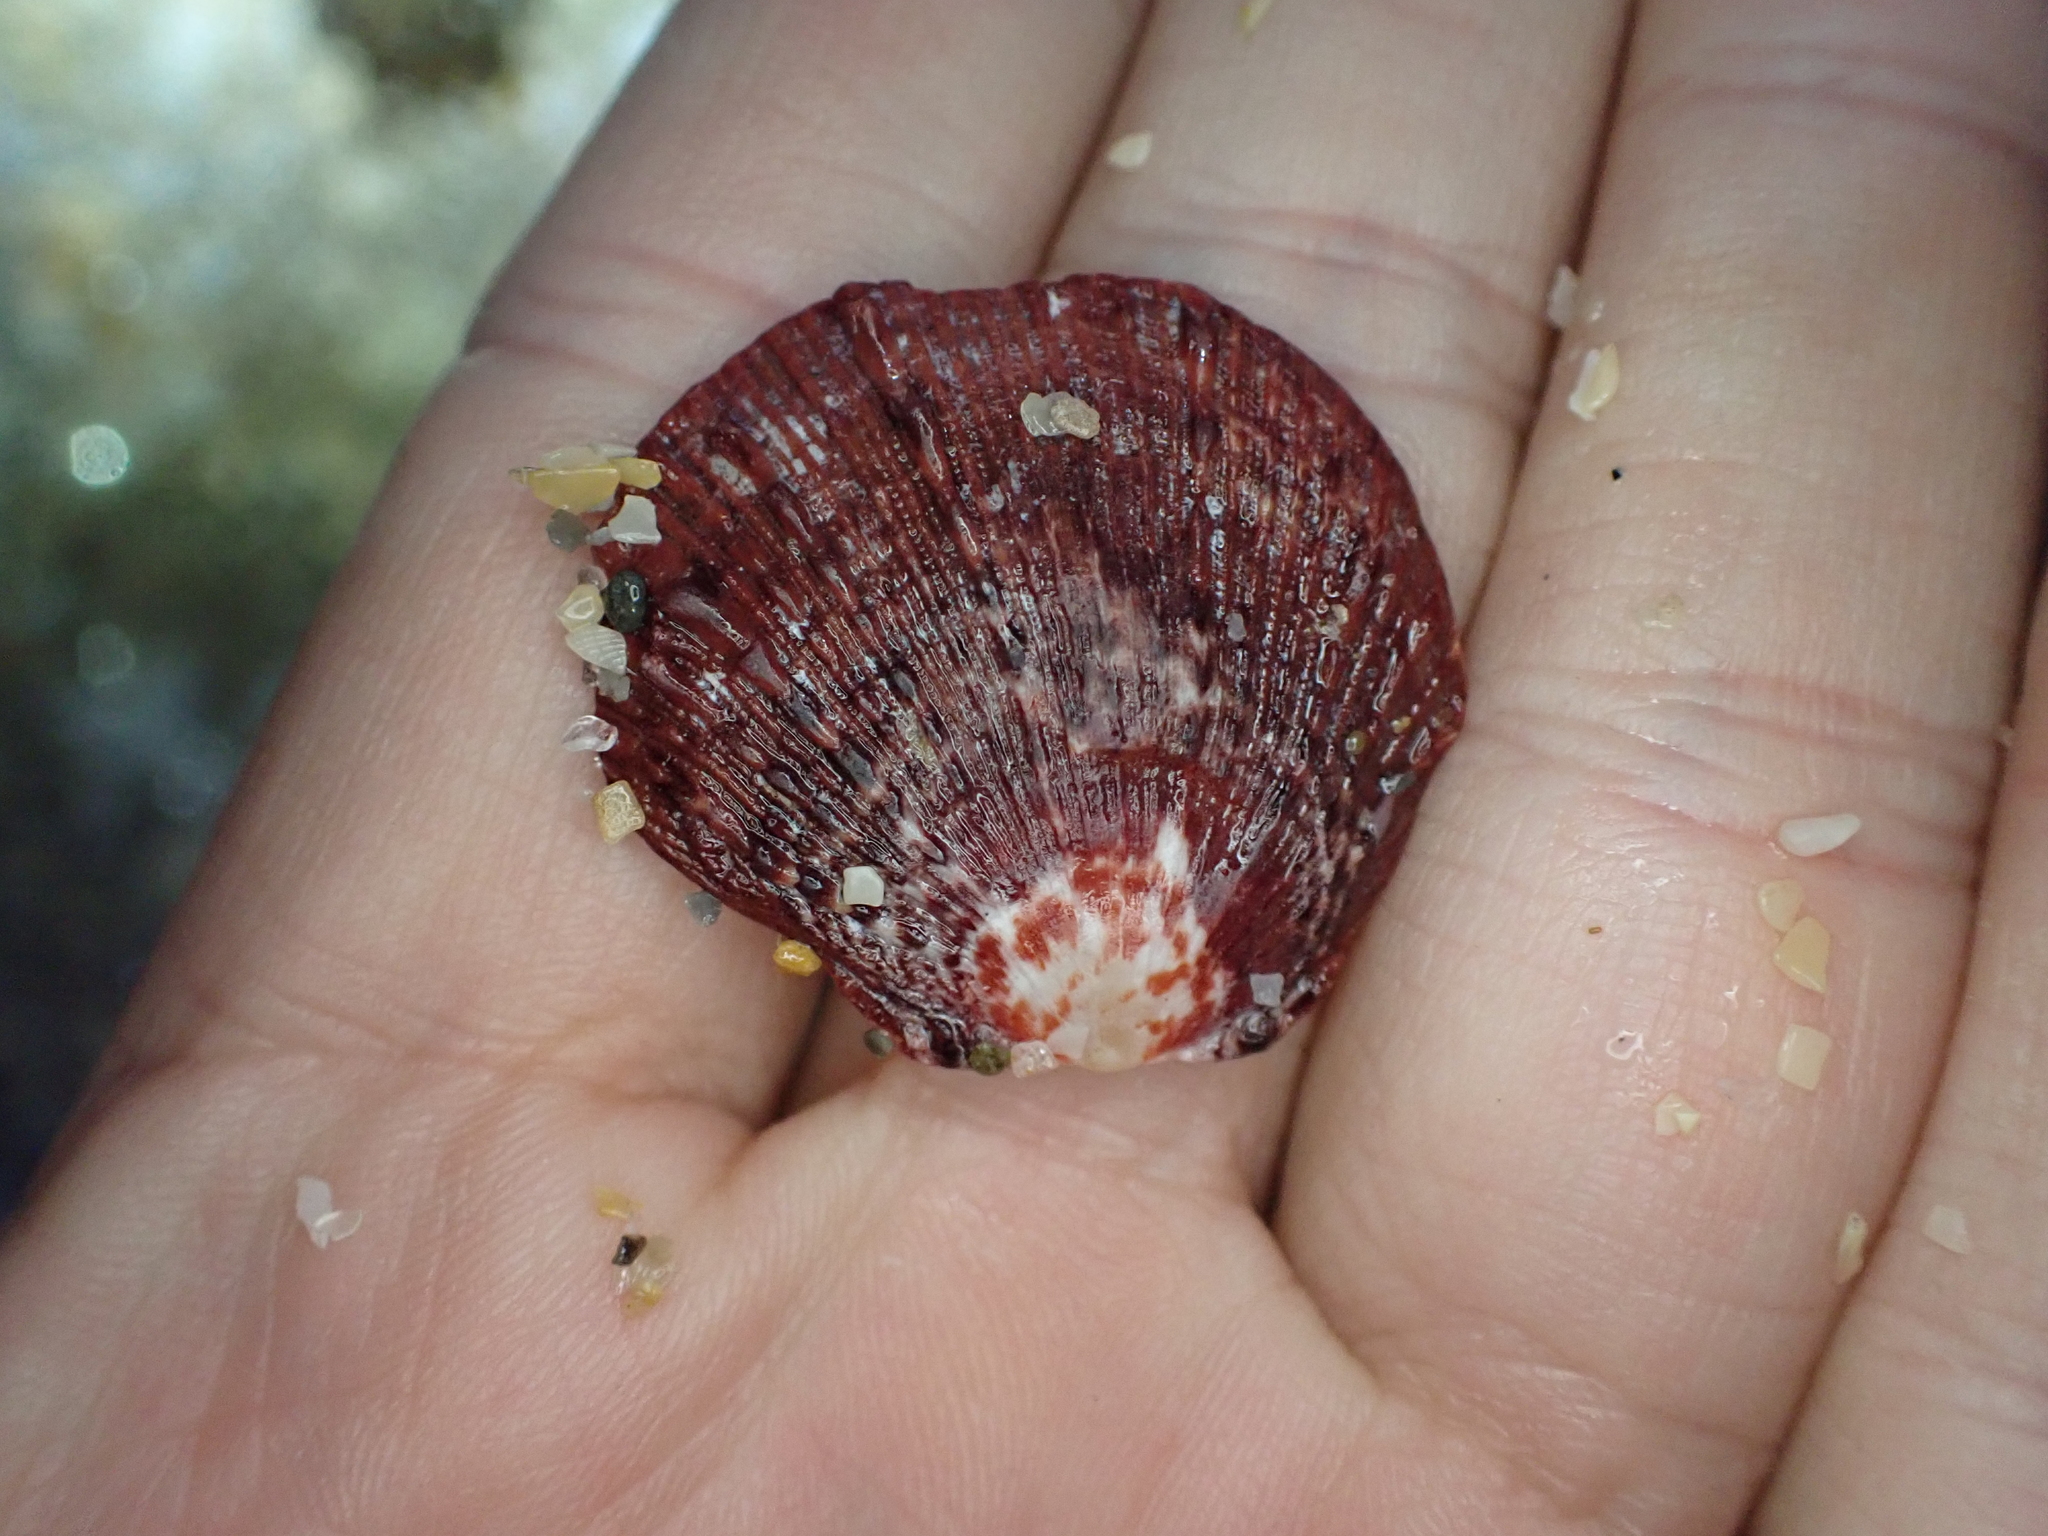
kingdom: Animalia
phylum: Mollusca
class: Bivalvia
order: Pectinida
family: Spondylidae
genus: Spondylus
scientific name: Spondylus tenuis
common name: Digitate thorny oyster
